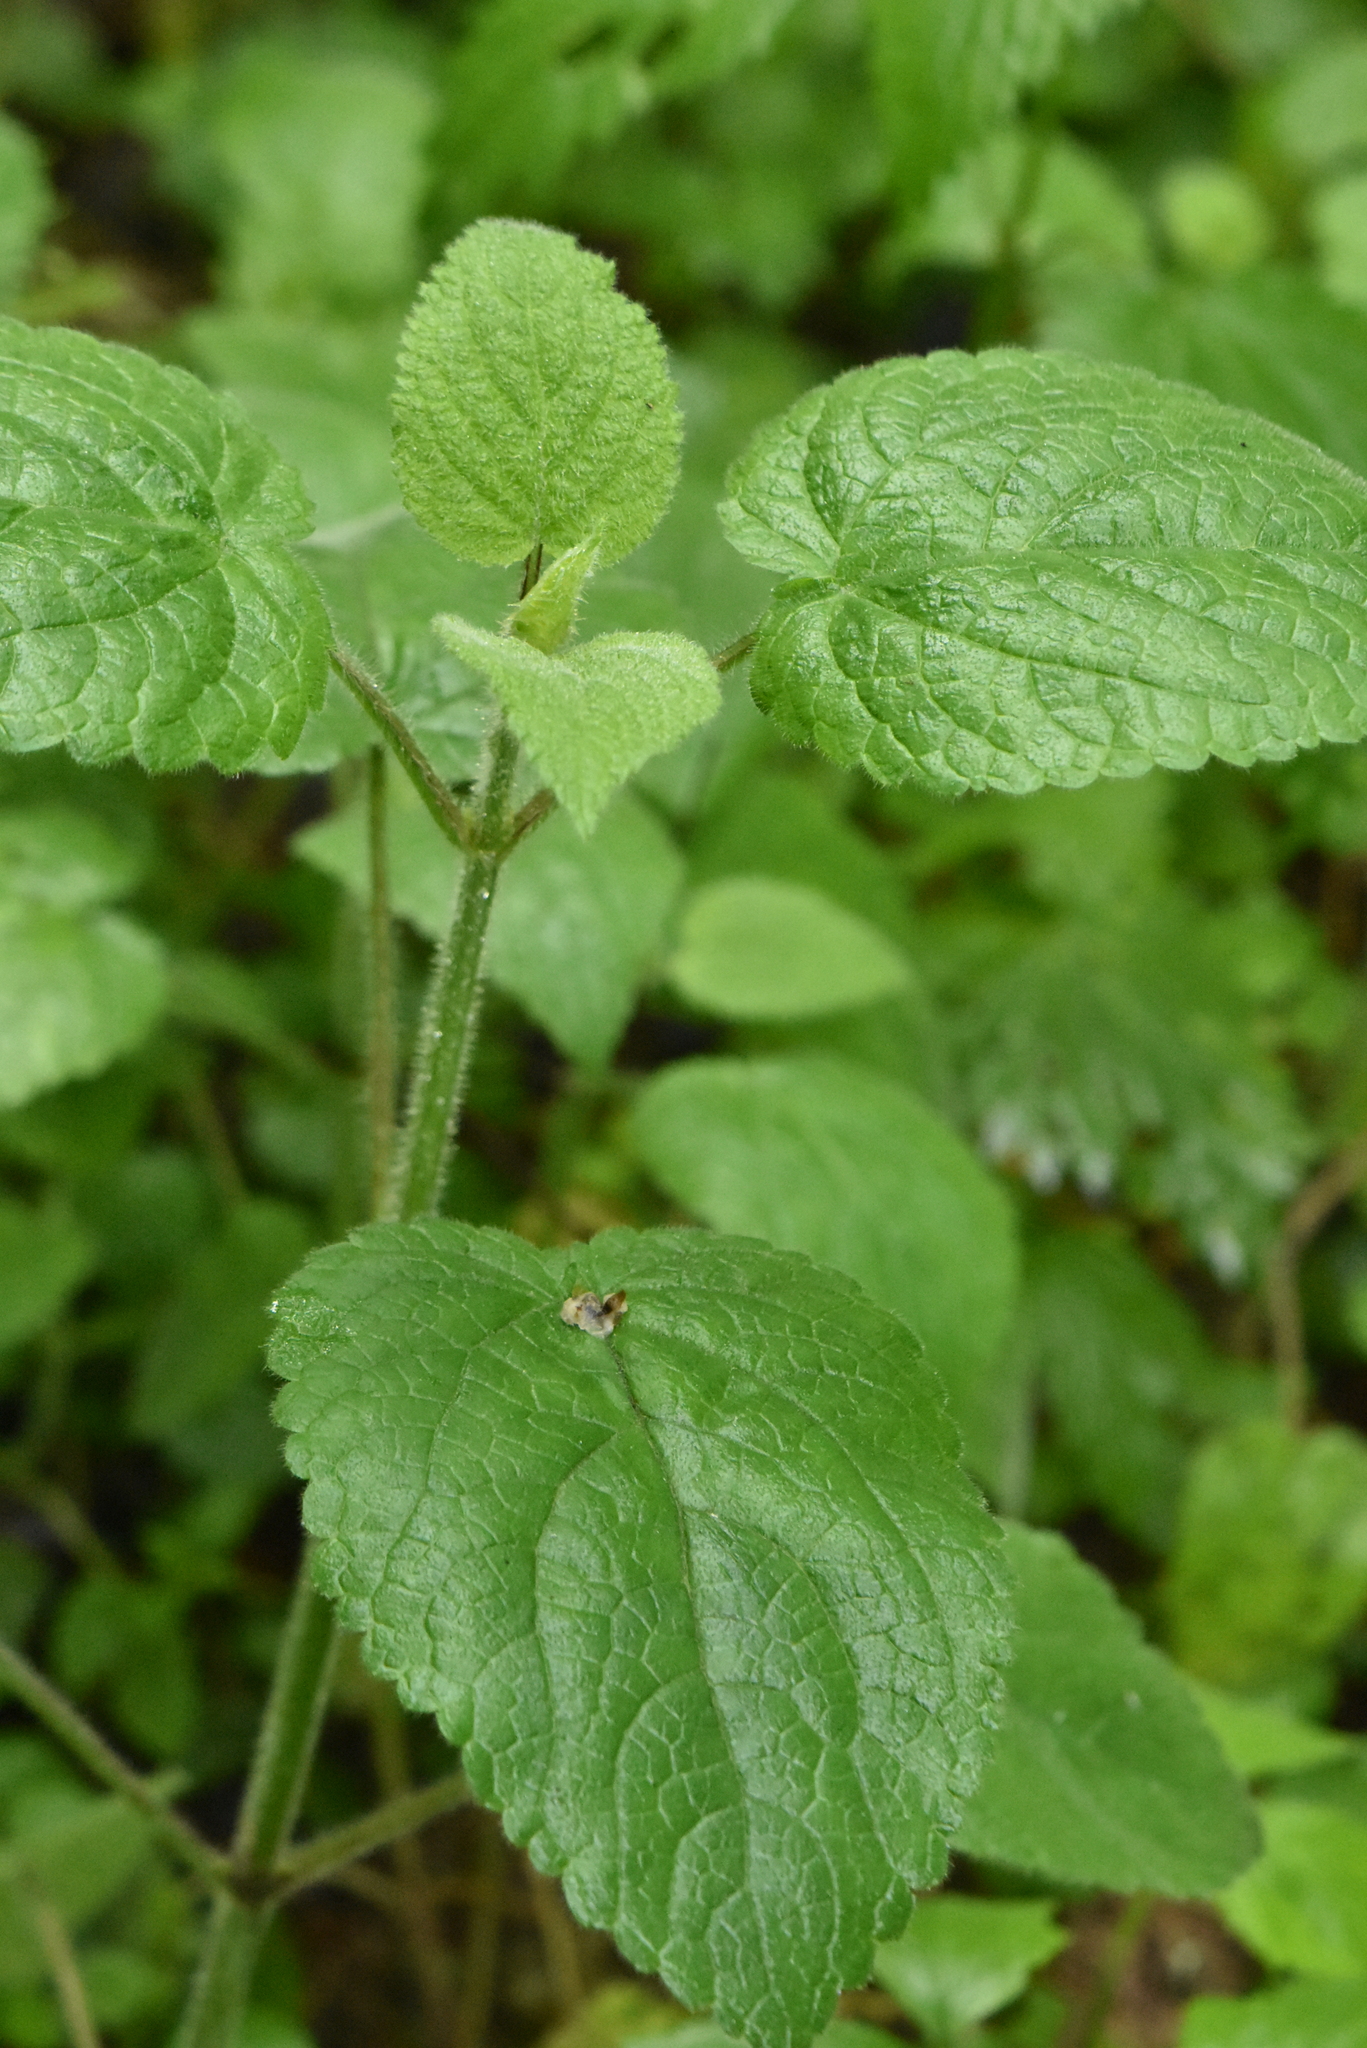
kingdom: Plantae
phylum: Tracheophyta
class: Magnoliopsida
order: Lamiales
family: Lamiaceae
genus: Stachys
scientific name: Stachys sylvatica
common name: Hedge woundwort
